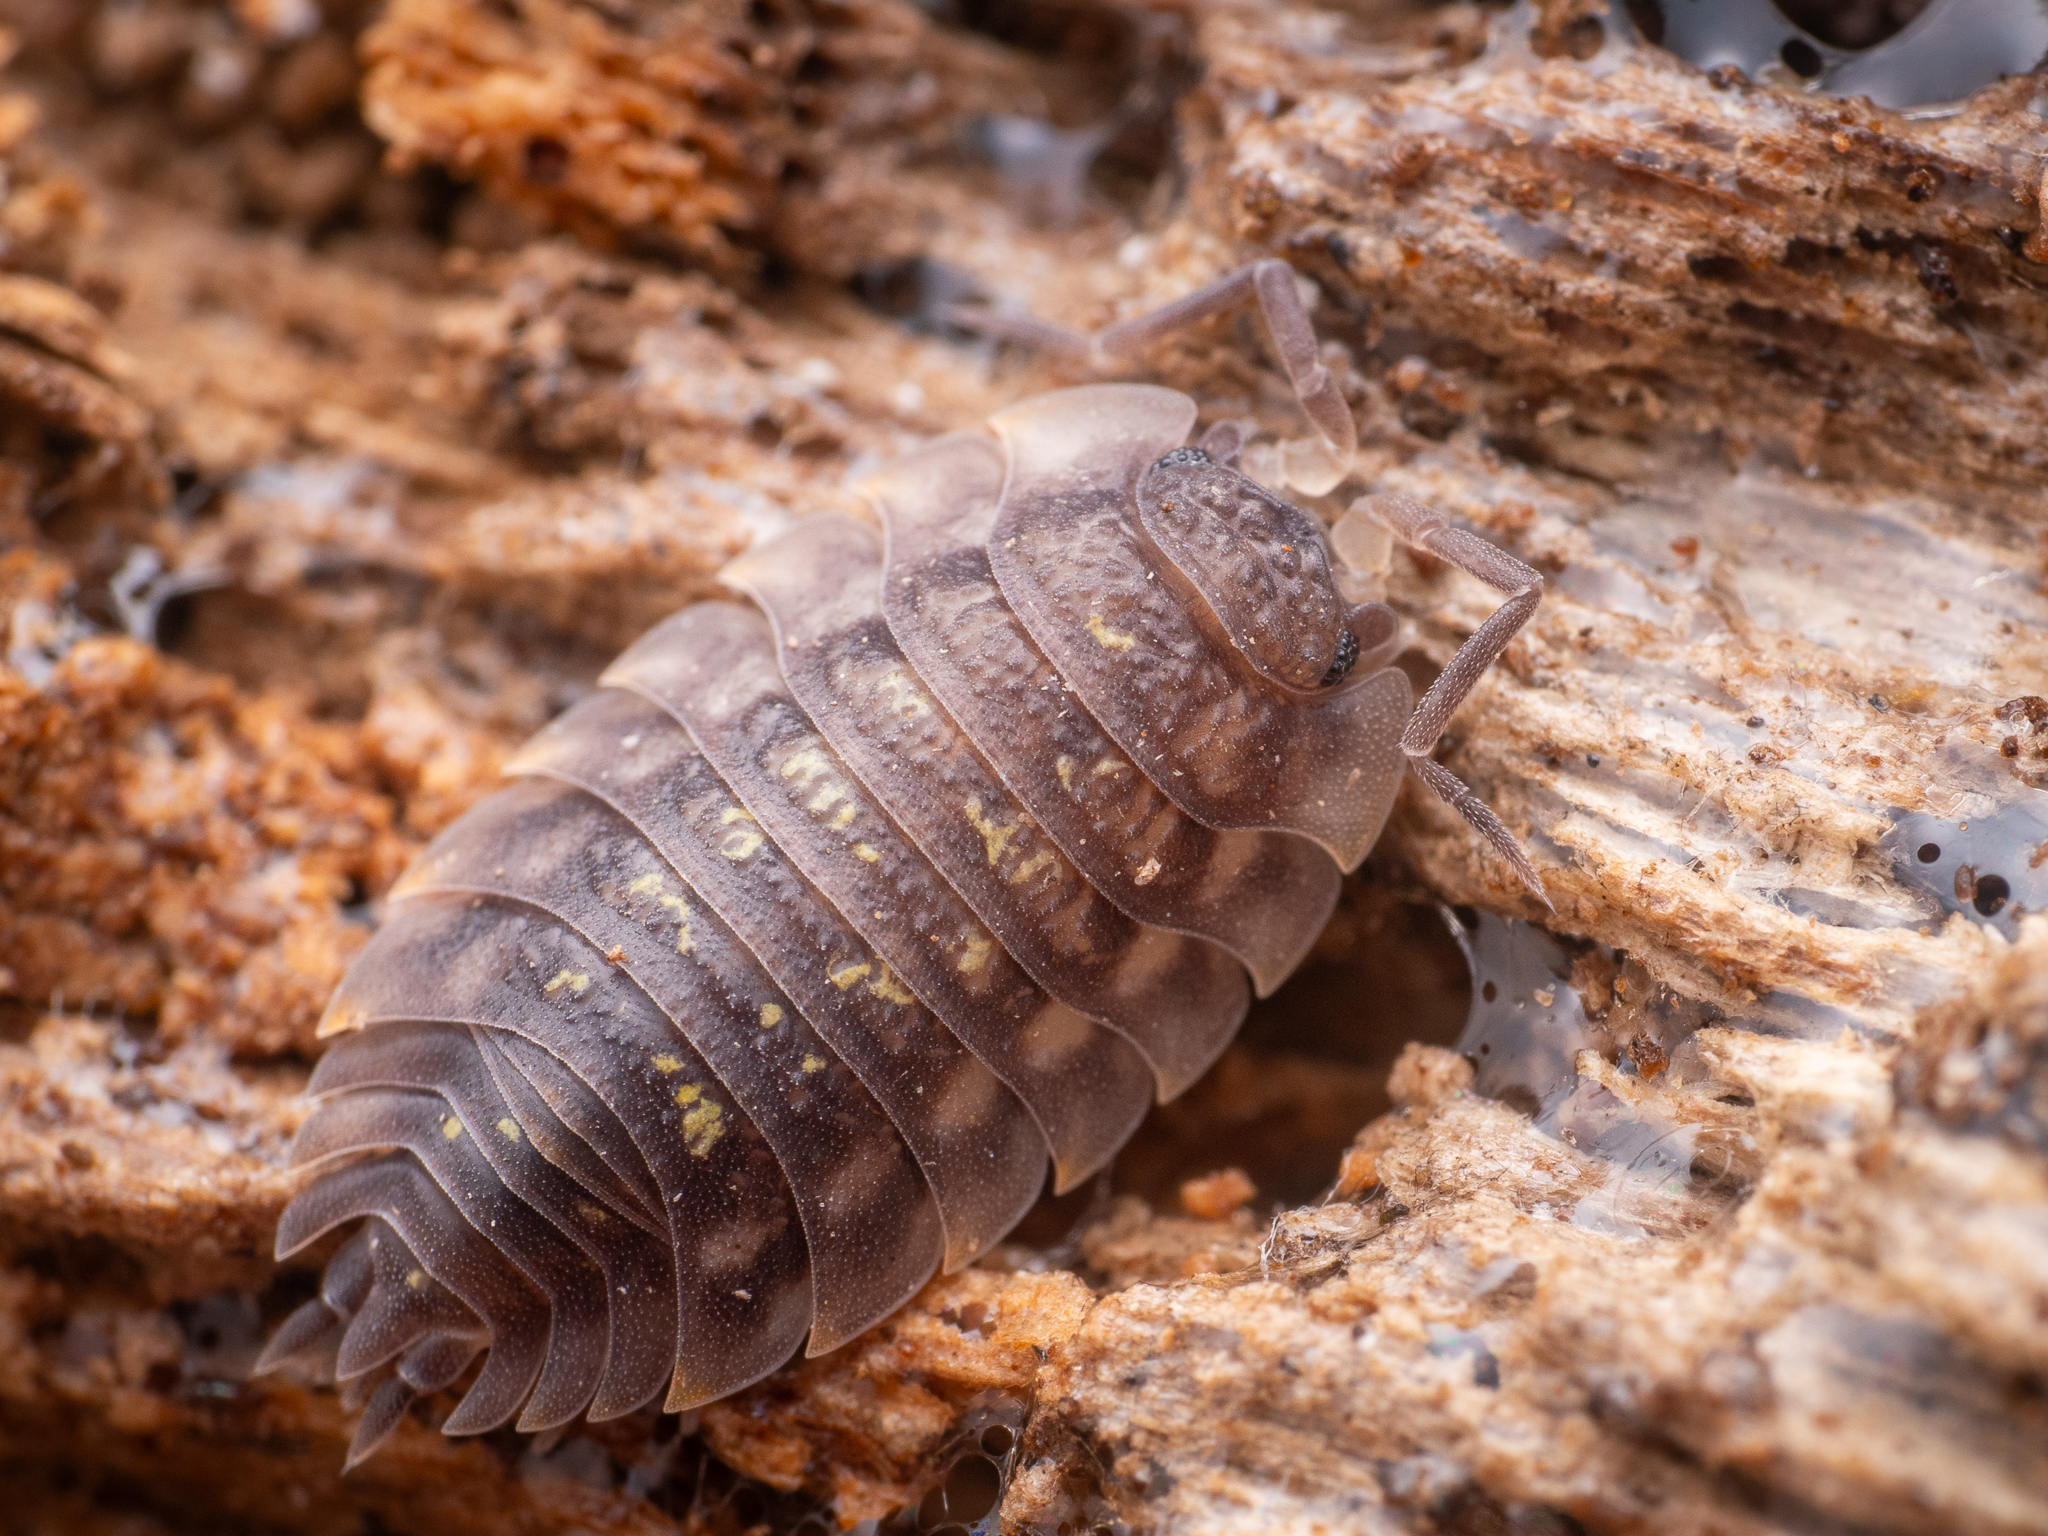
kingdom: Animalia
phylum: Arthropoda
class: Malacostraca
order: Isopoda
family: Oniscidae
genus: Oniscus
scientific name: Oniscus asellus
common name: Common shiny woodlouse
